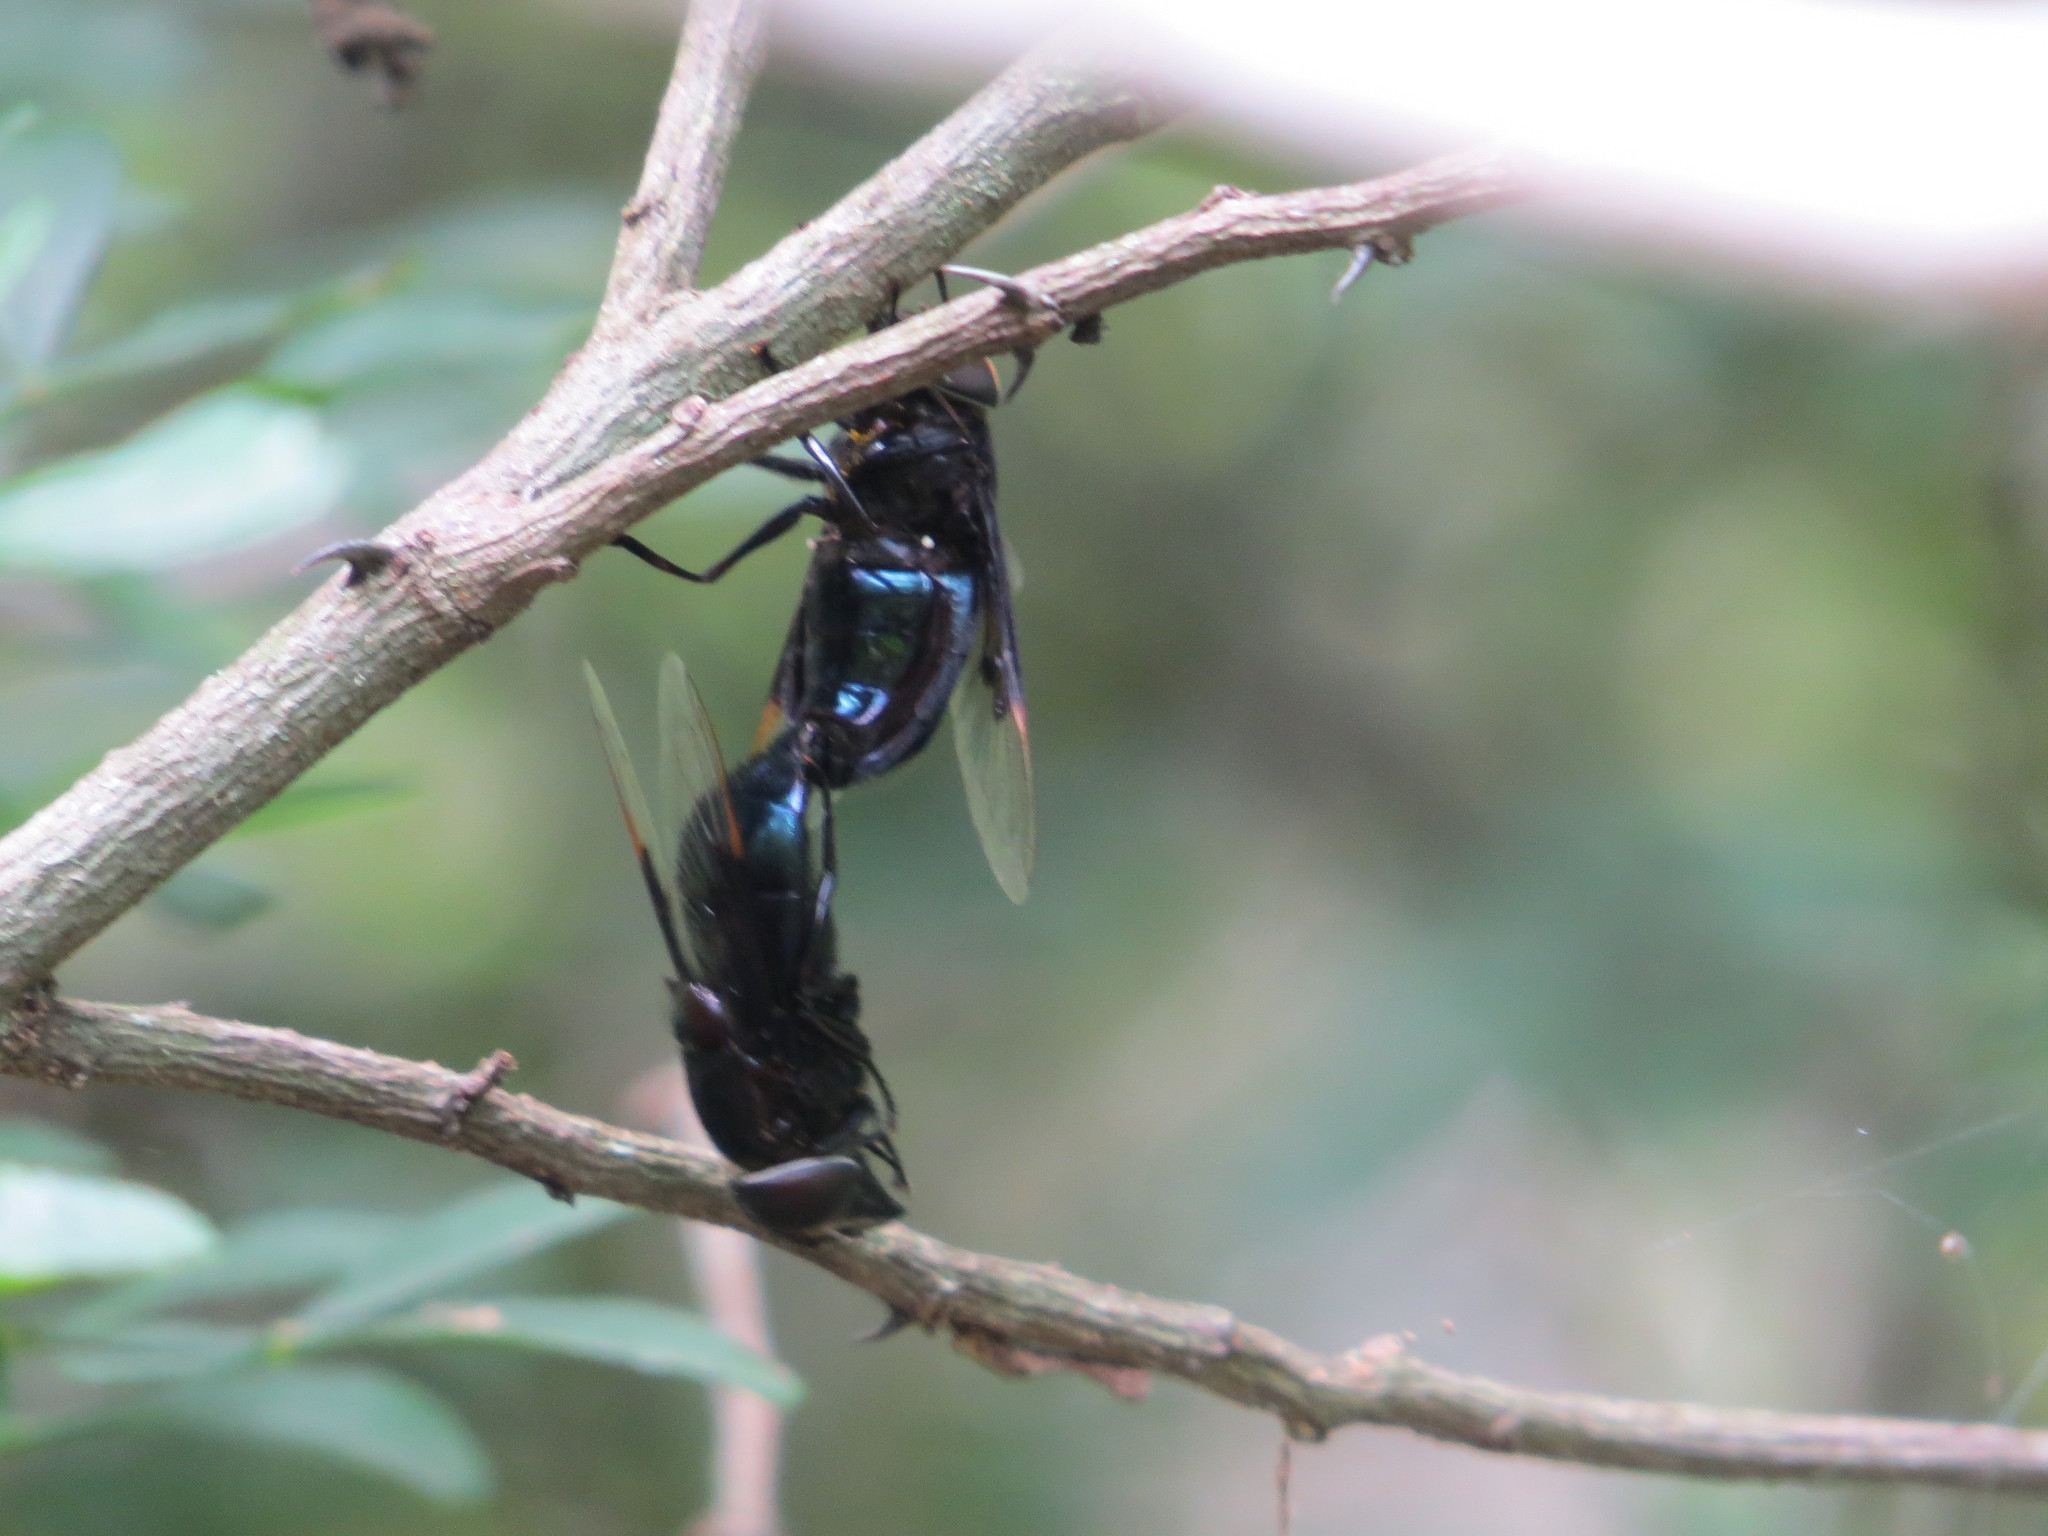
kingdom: Animalia
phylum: Arthropoda
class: Insecta
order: Diptera
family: Syrphidae
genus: Copestylum
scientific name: Copestylum violaceum
